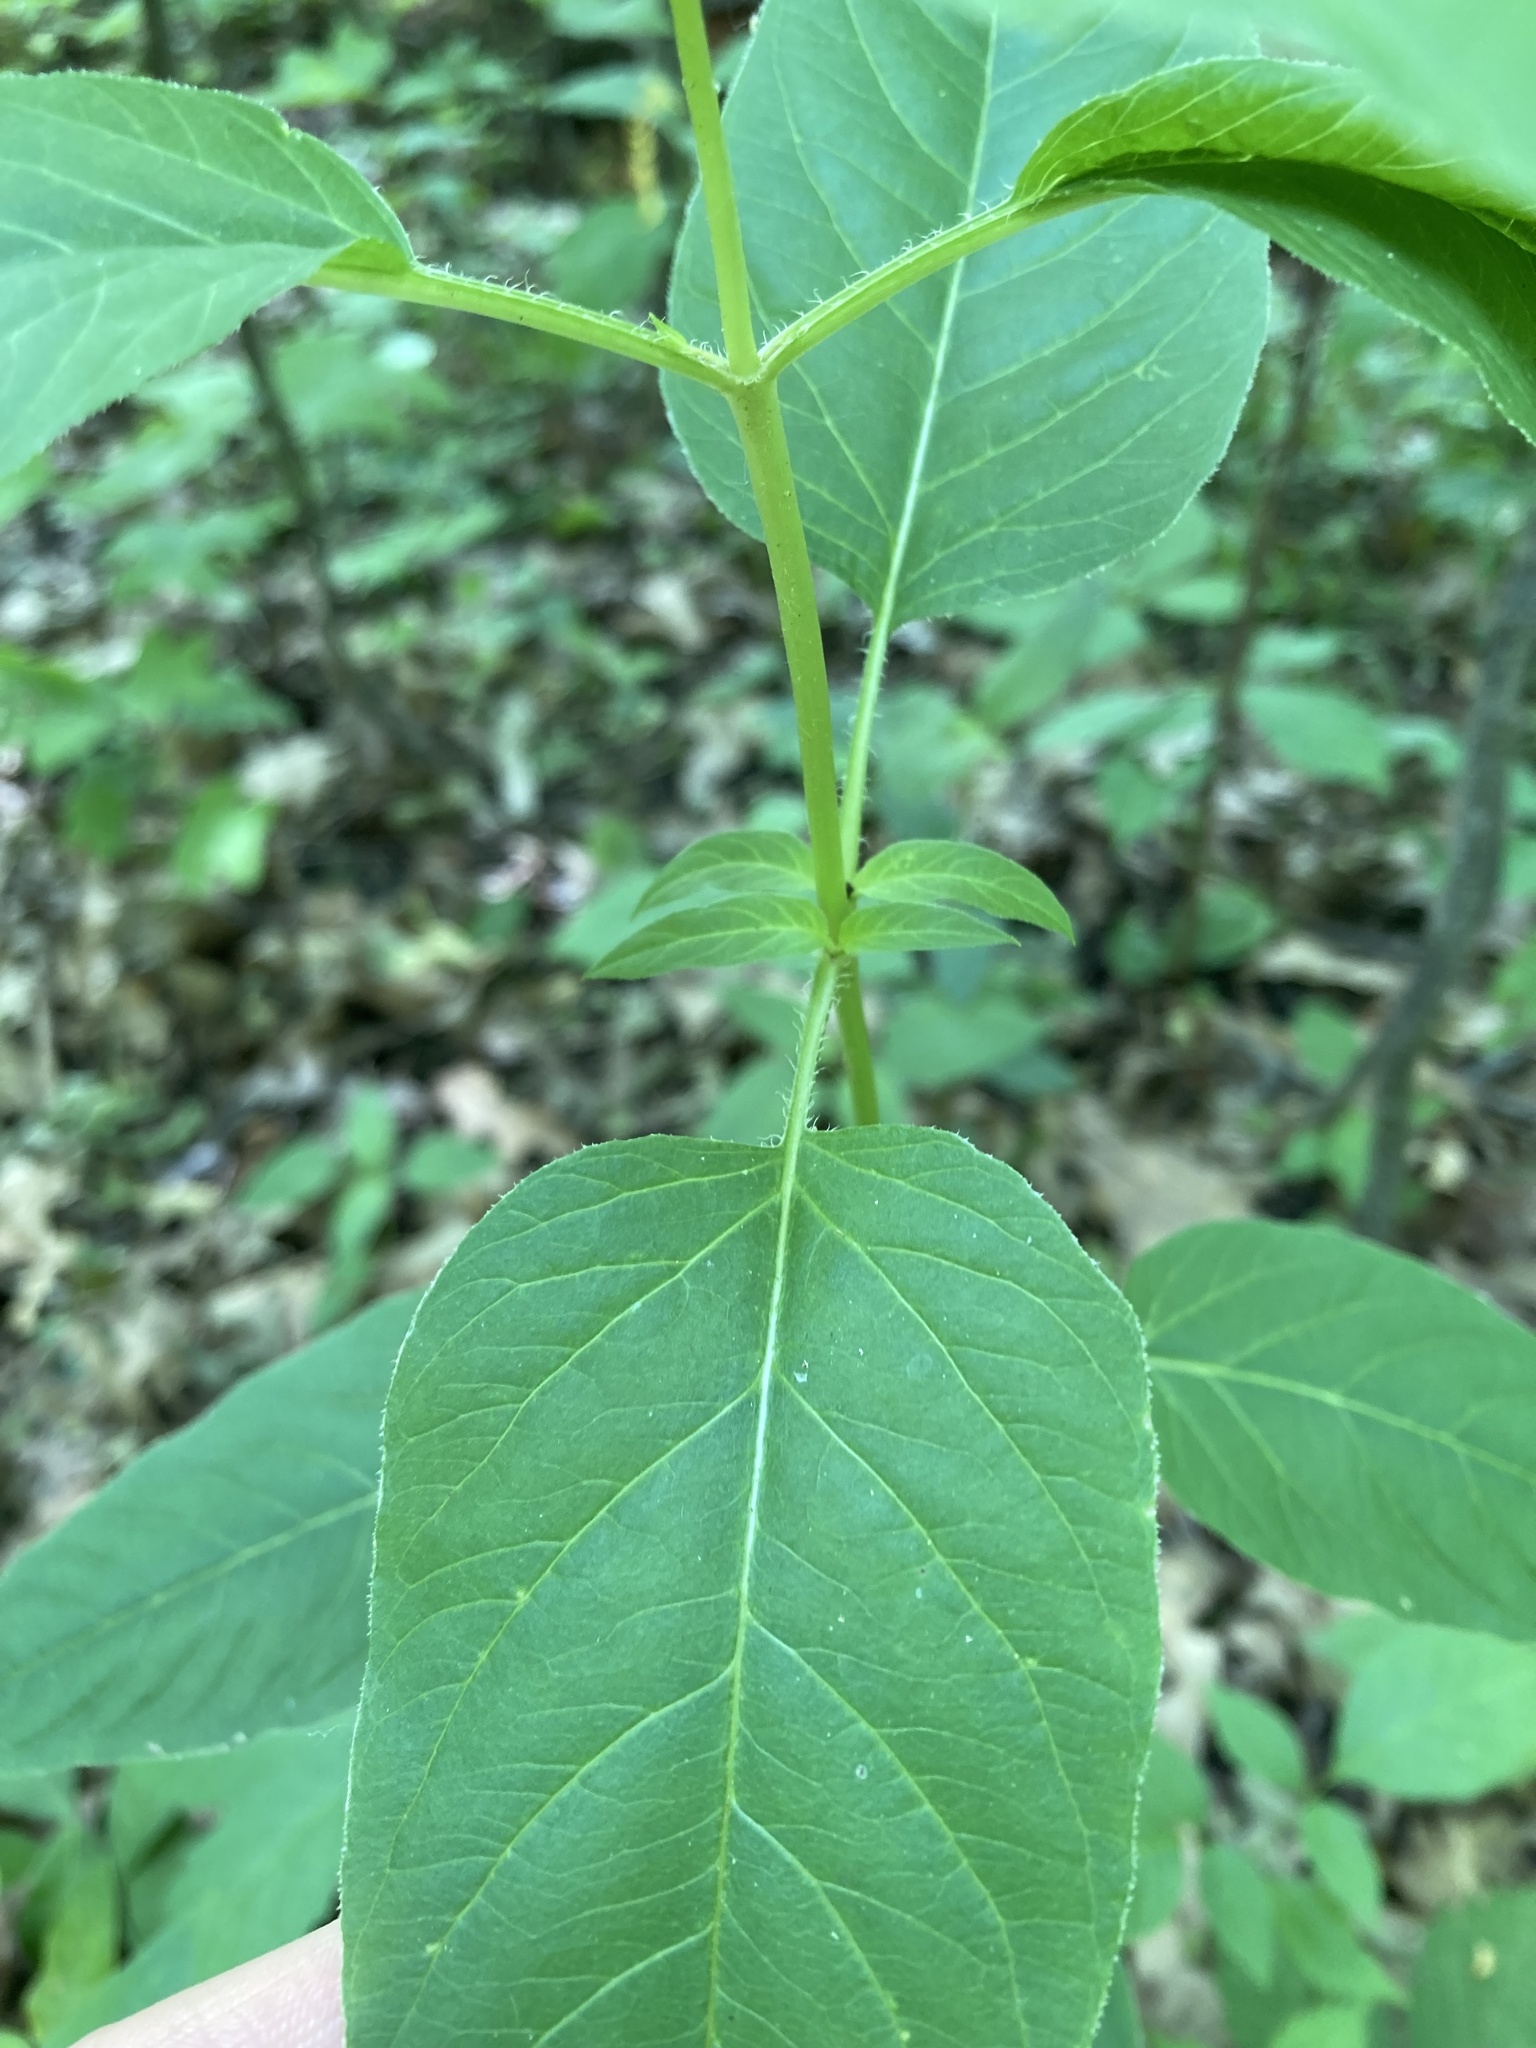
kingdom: Plantae
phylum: Tracheophyta
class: Magnoliopsida
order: Ericales
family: Primulaceae
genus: Lysimachia
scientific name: Lysimachia ciliata
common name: Fringed loosestrife
